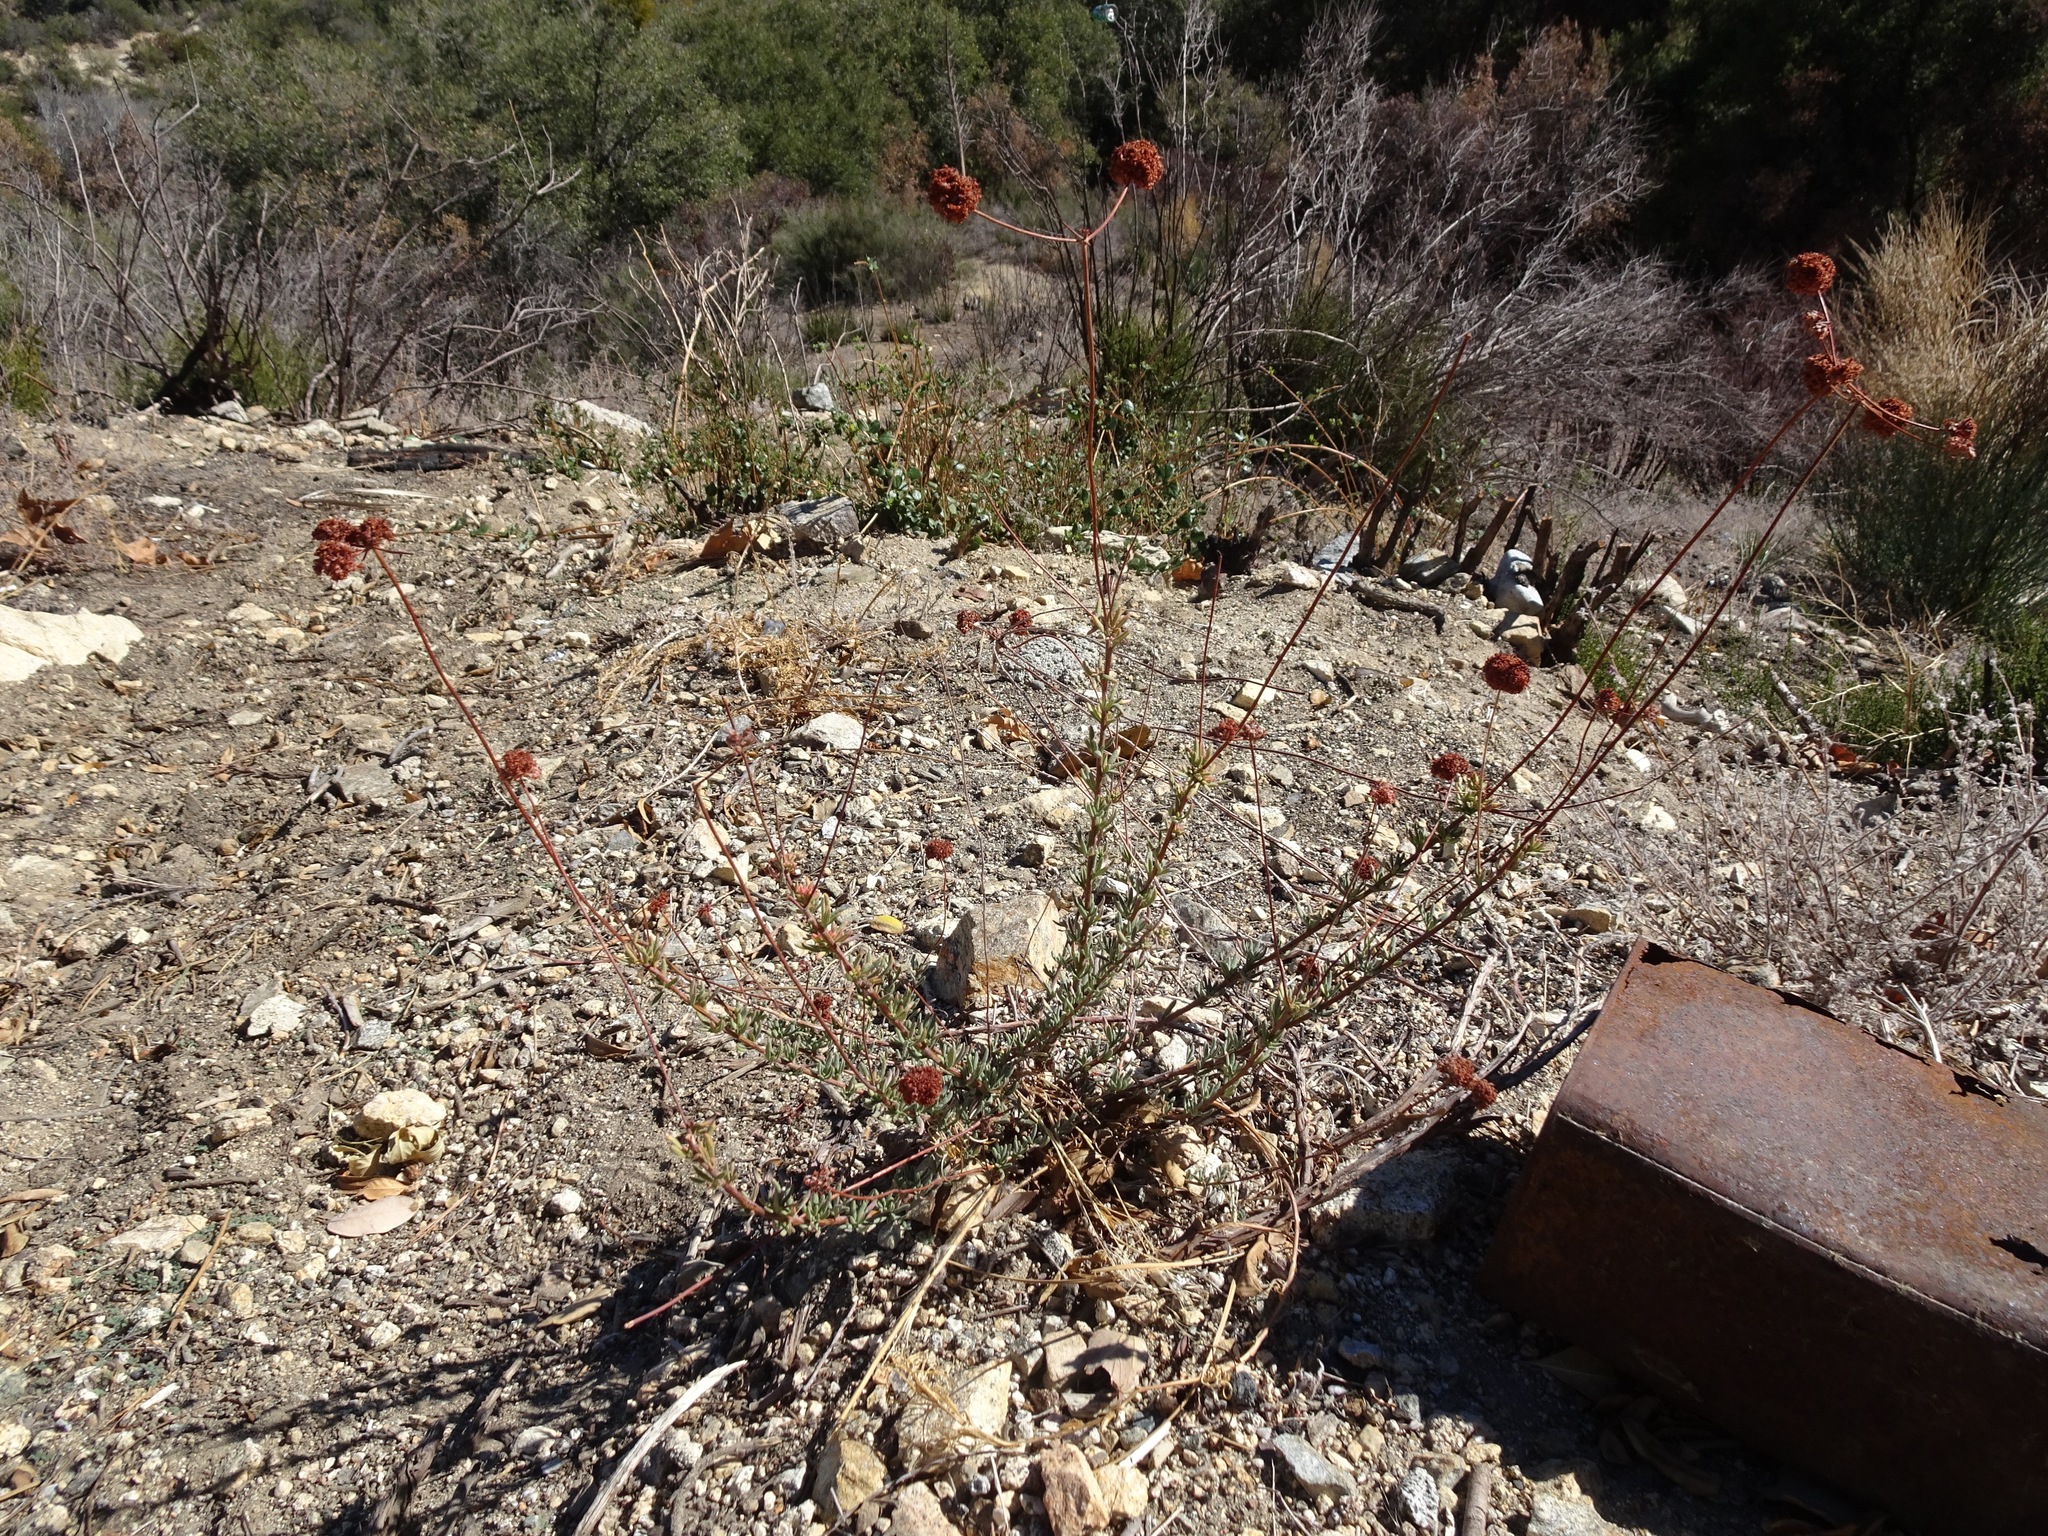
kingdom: Plantae
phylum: Tracheophyta
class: Magnoliopsida
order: Caryophyllales
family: Polygonaceae
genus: Eriogonum
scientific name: Eriogonum fasciculatum
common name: California wild buckwheat
